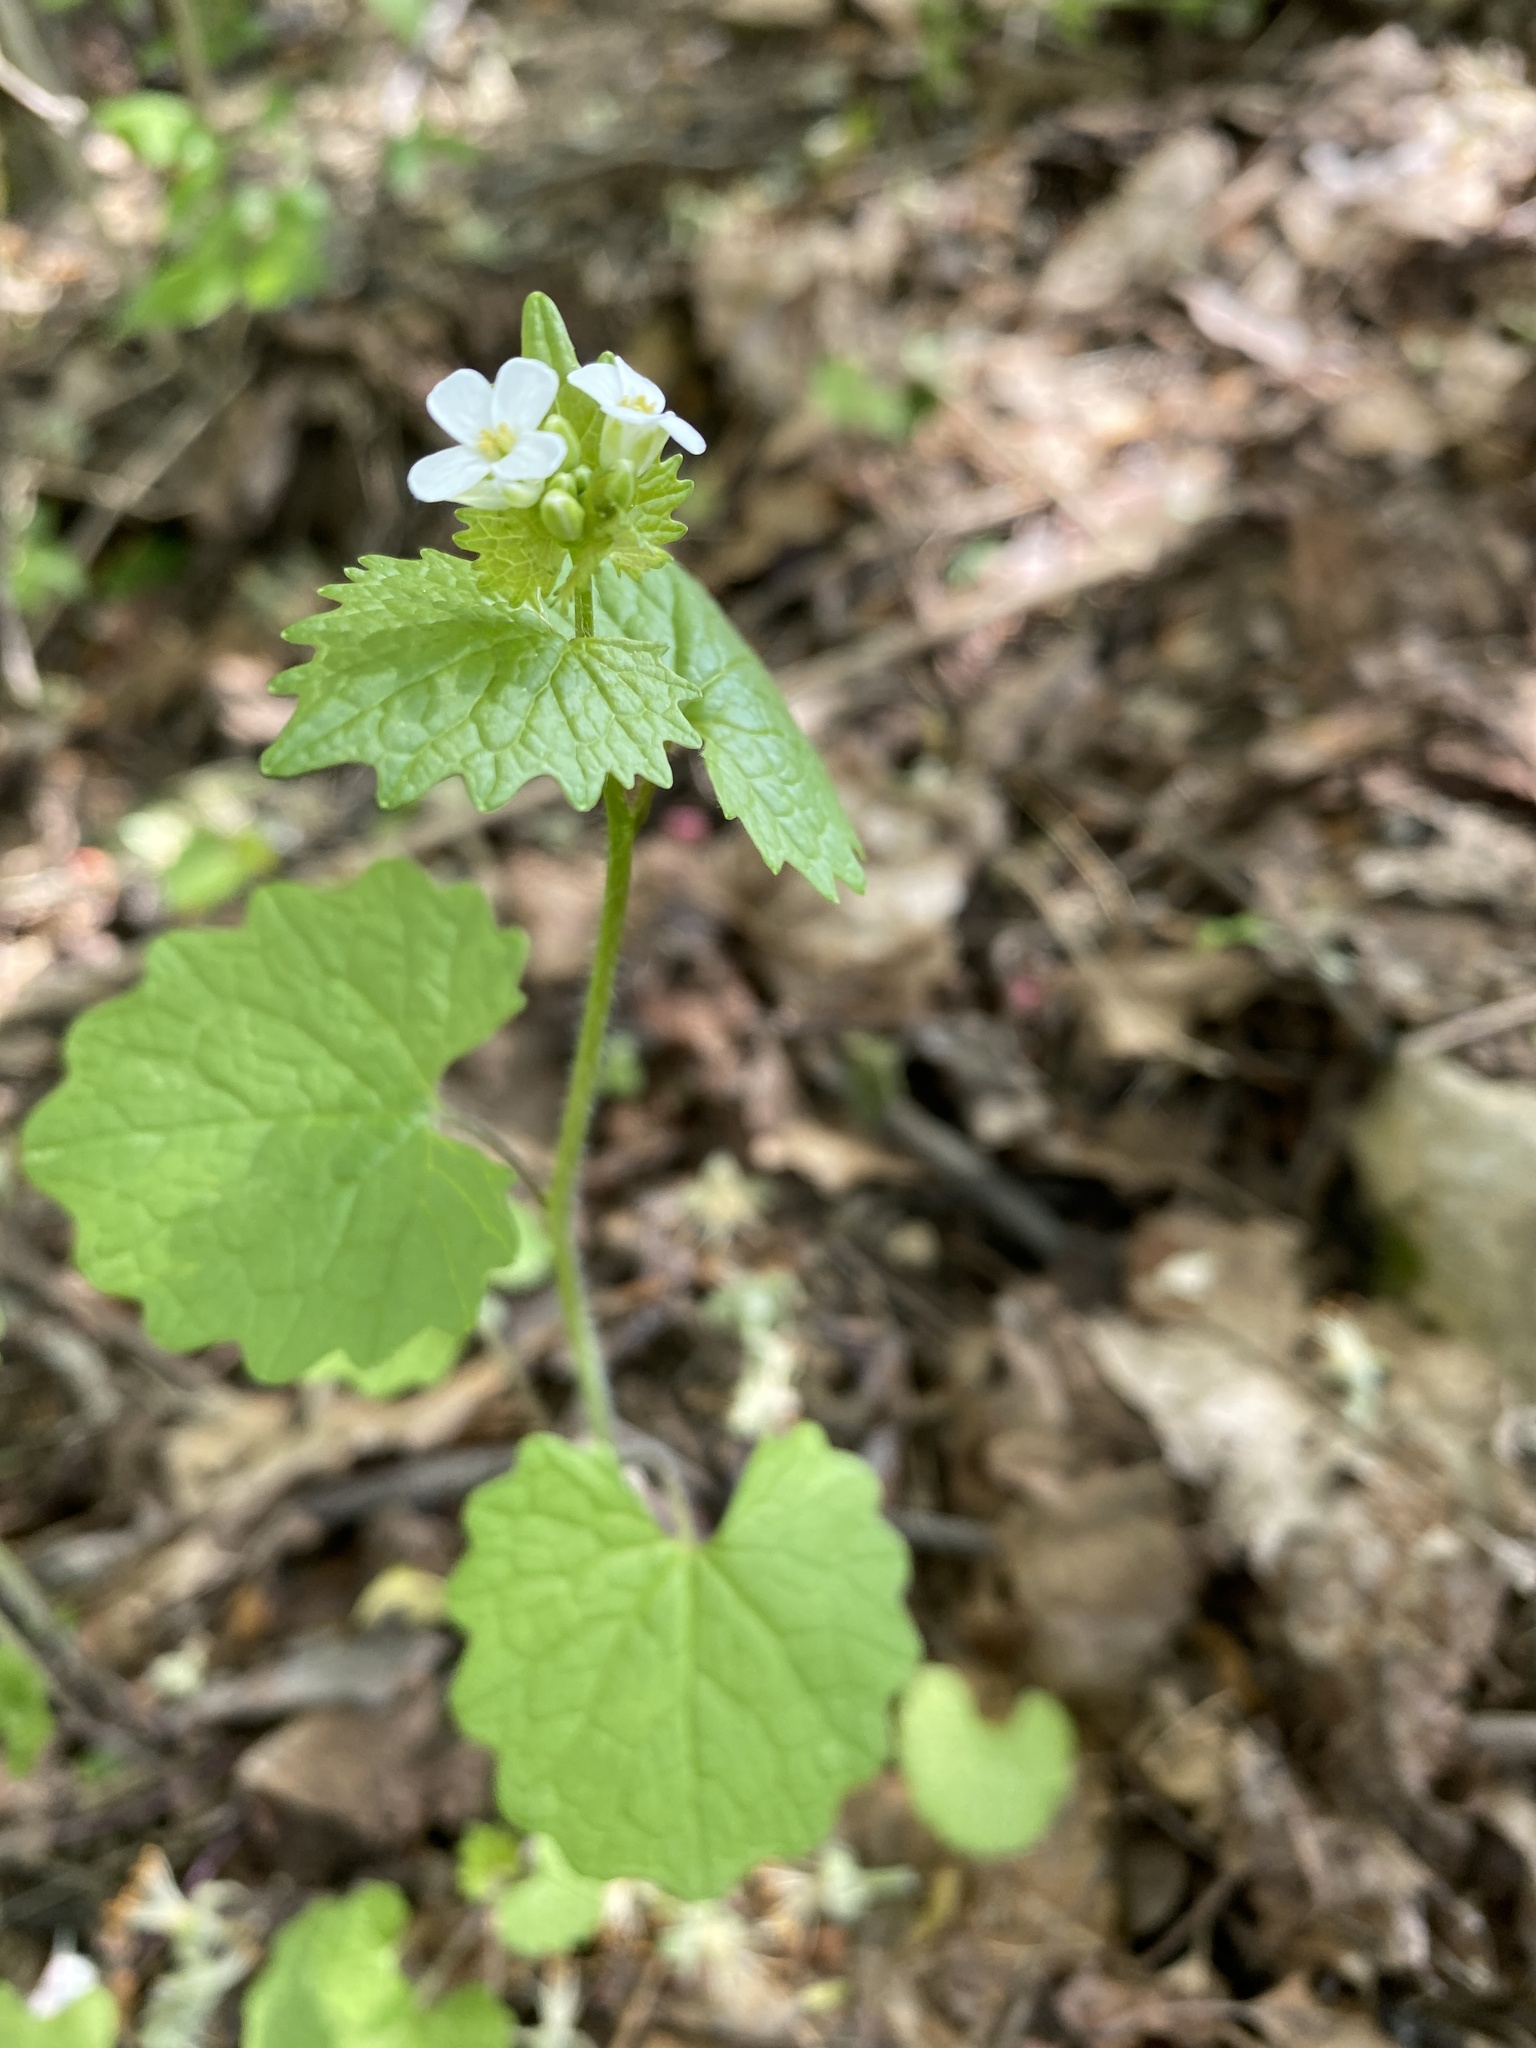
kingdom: Plantae
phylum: Tracheophyta
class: Magnoliopsida
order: Brassicales
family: Brassicaceae
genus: Alliaria
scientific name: Alliaria petiolata
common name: Garlic mustard
